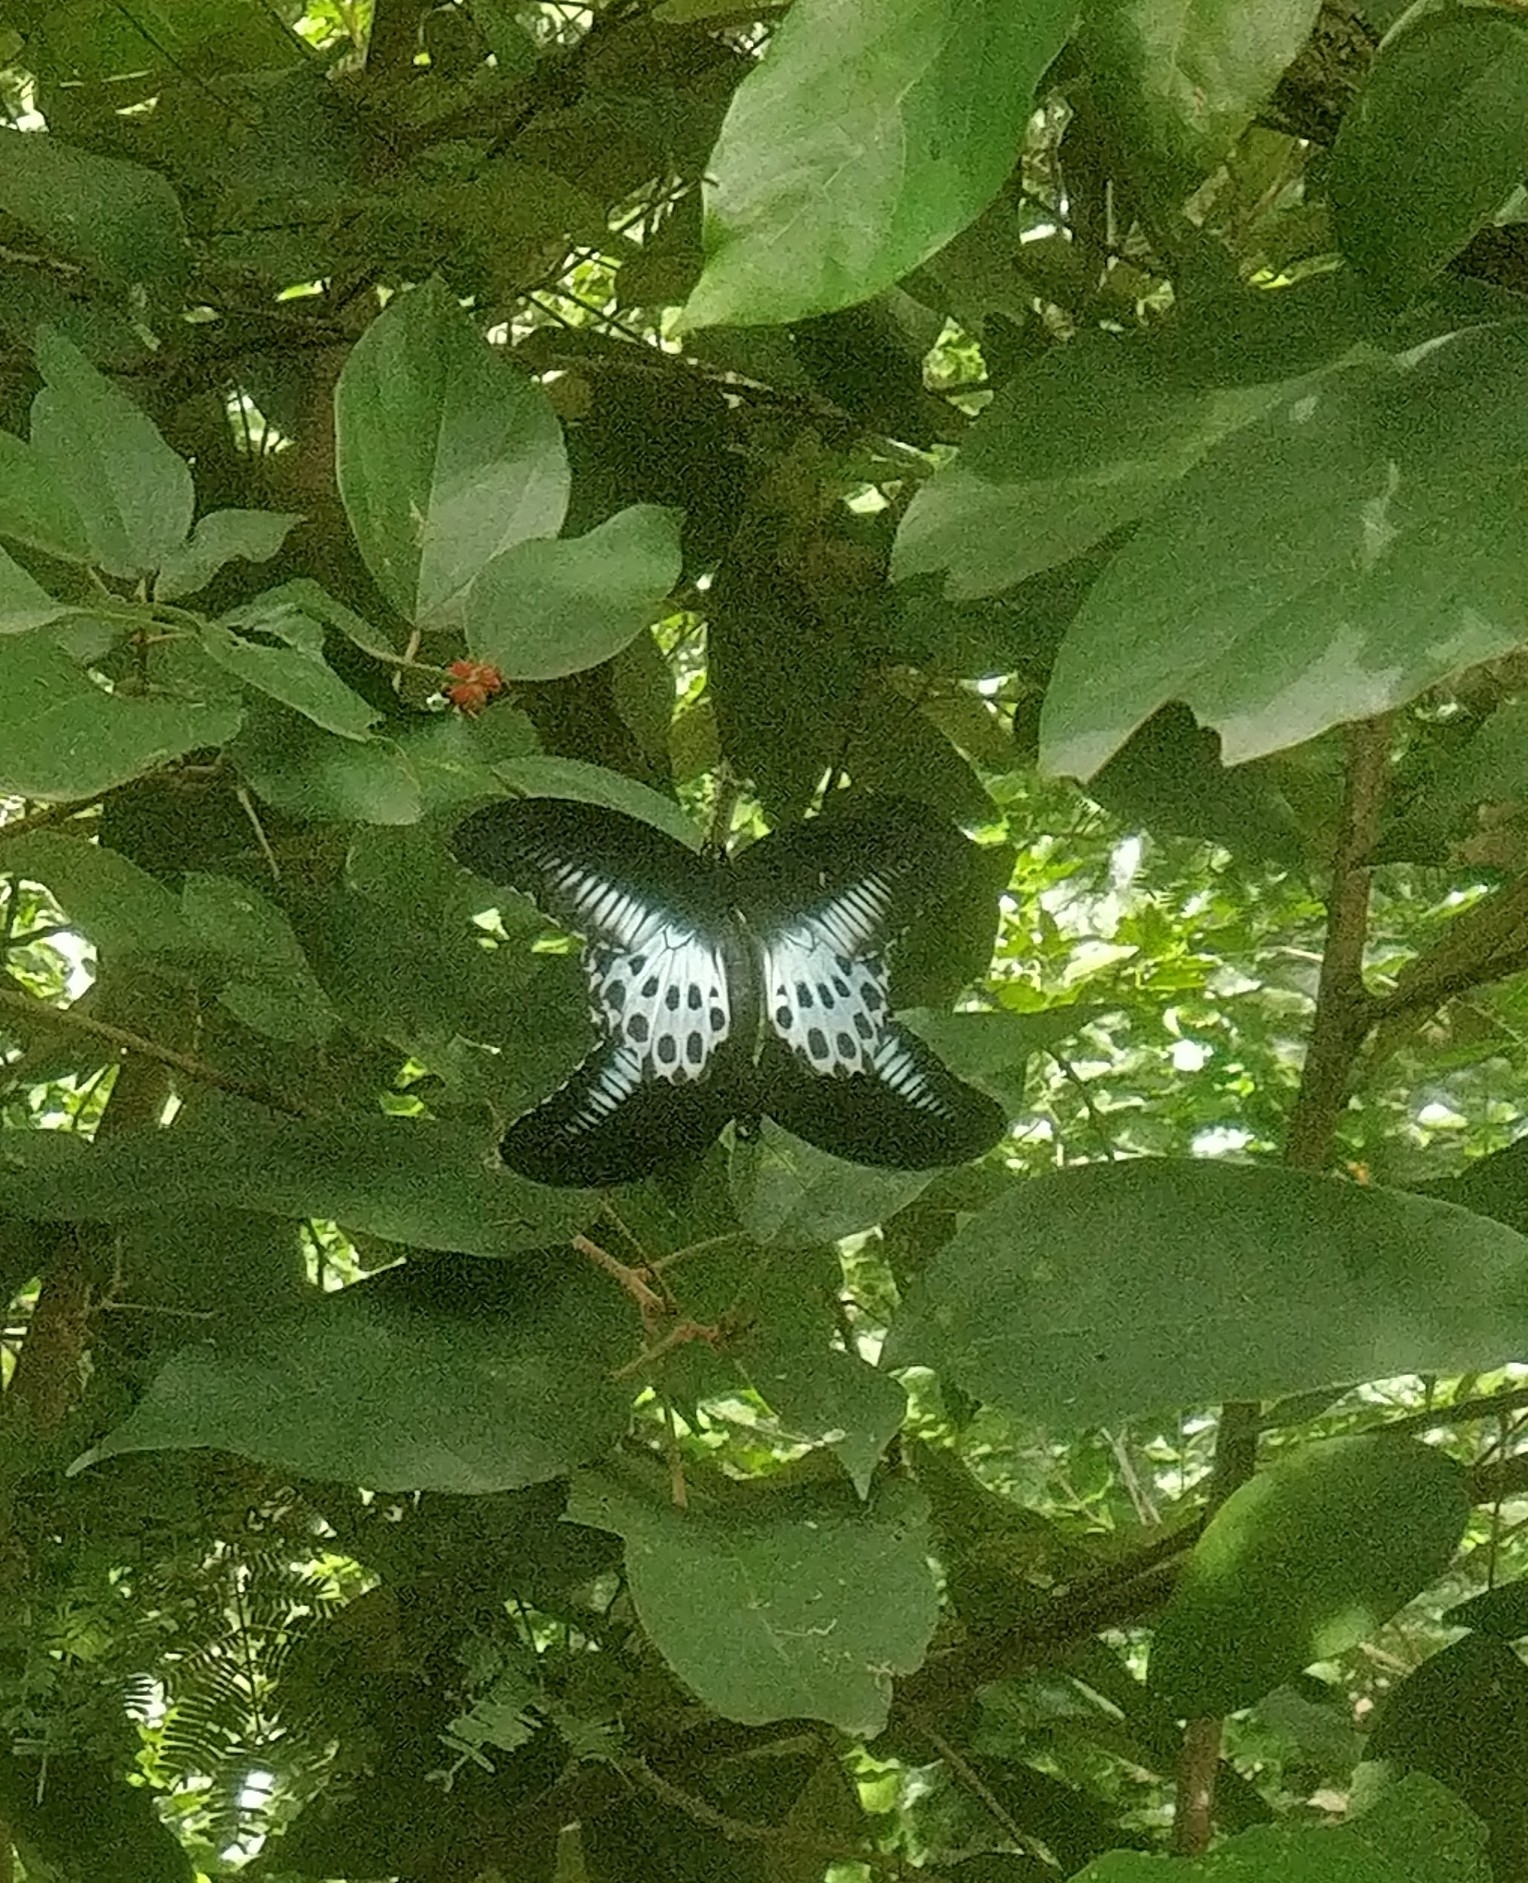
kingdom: Animalia
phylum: Arthropoda
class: Insecta
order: Lepidoptera
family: Papilionidae
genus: Papilio
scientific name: Papilio memnon
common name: Great mormon
